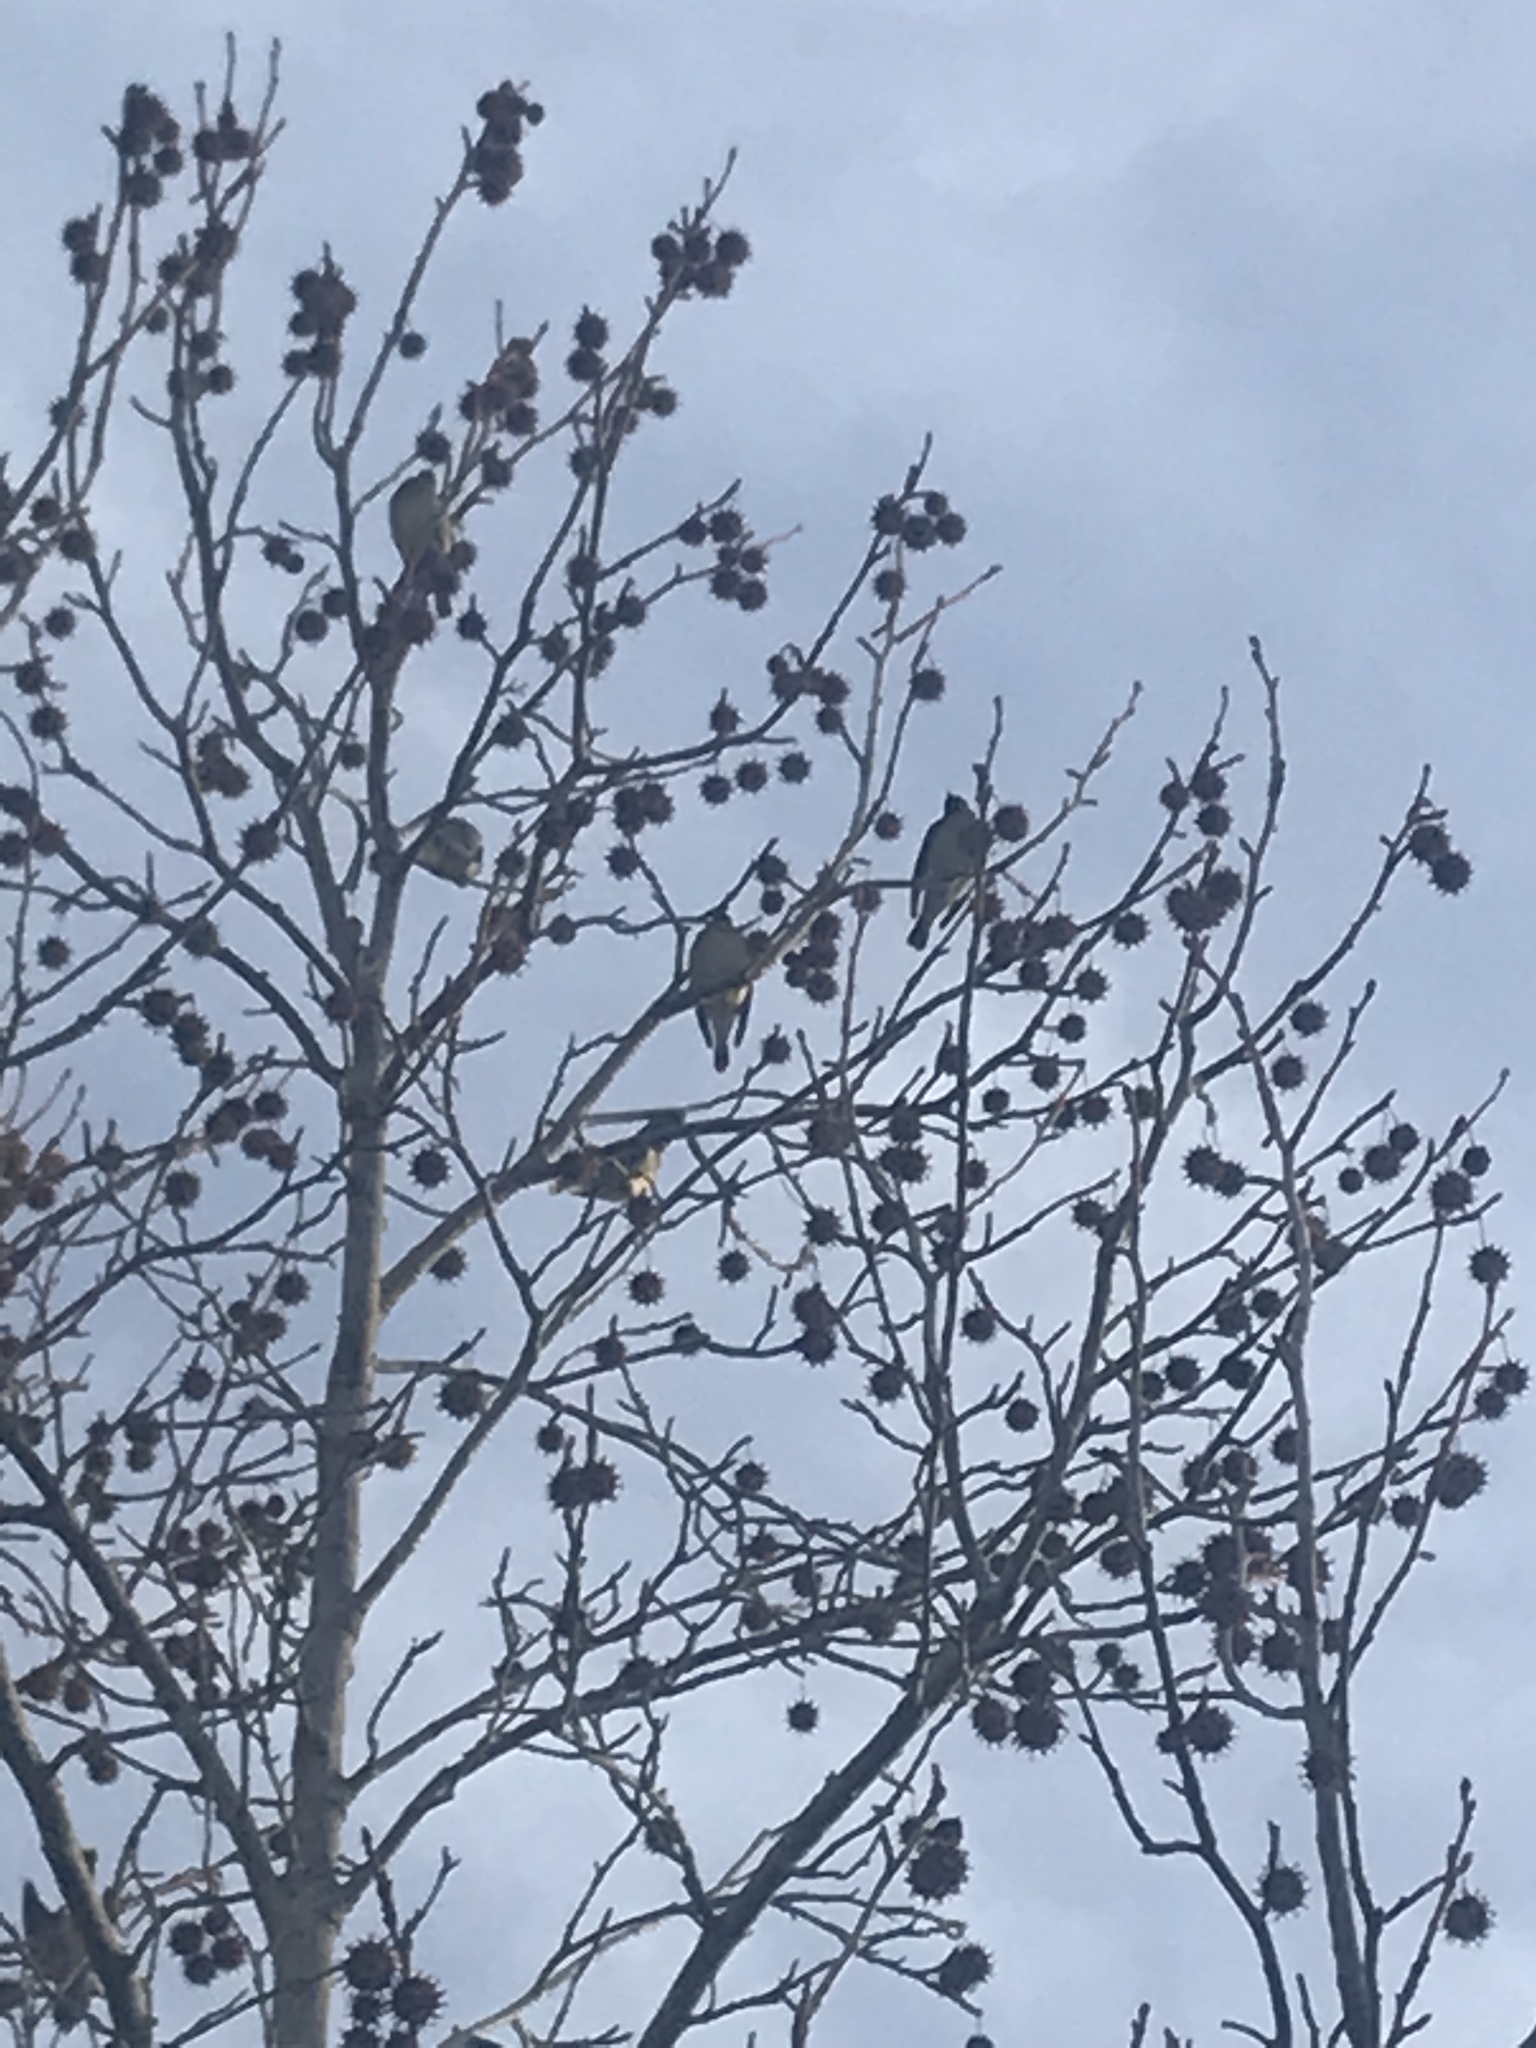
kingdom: Animalia
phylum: Chordata
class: Aves
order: Passeriformes
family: Bombycillidae
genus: Bombycilla
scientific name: Bombycilla cedrorum
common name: Cedar waxwing
